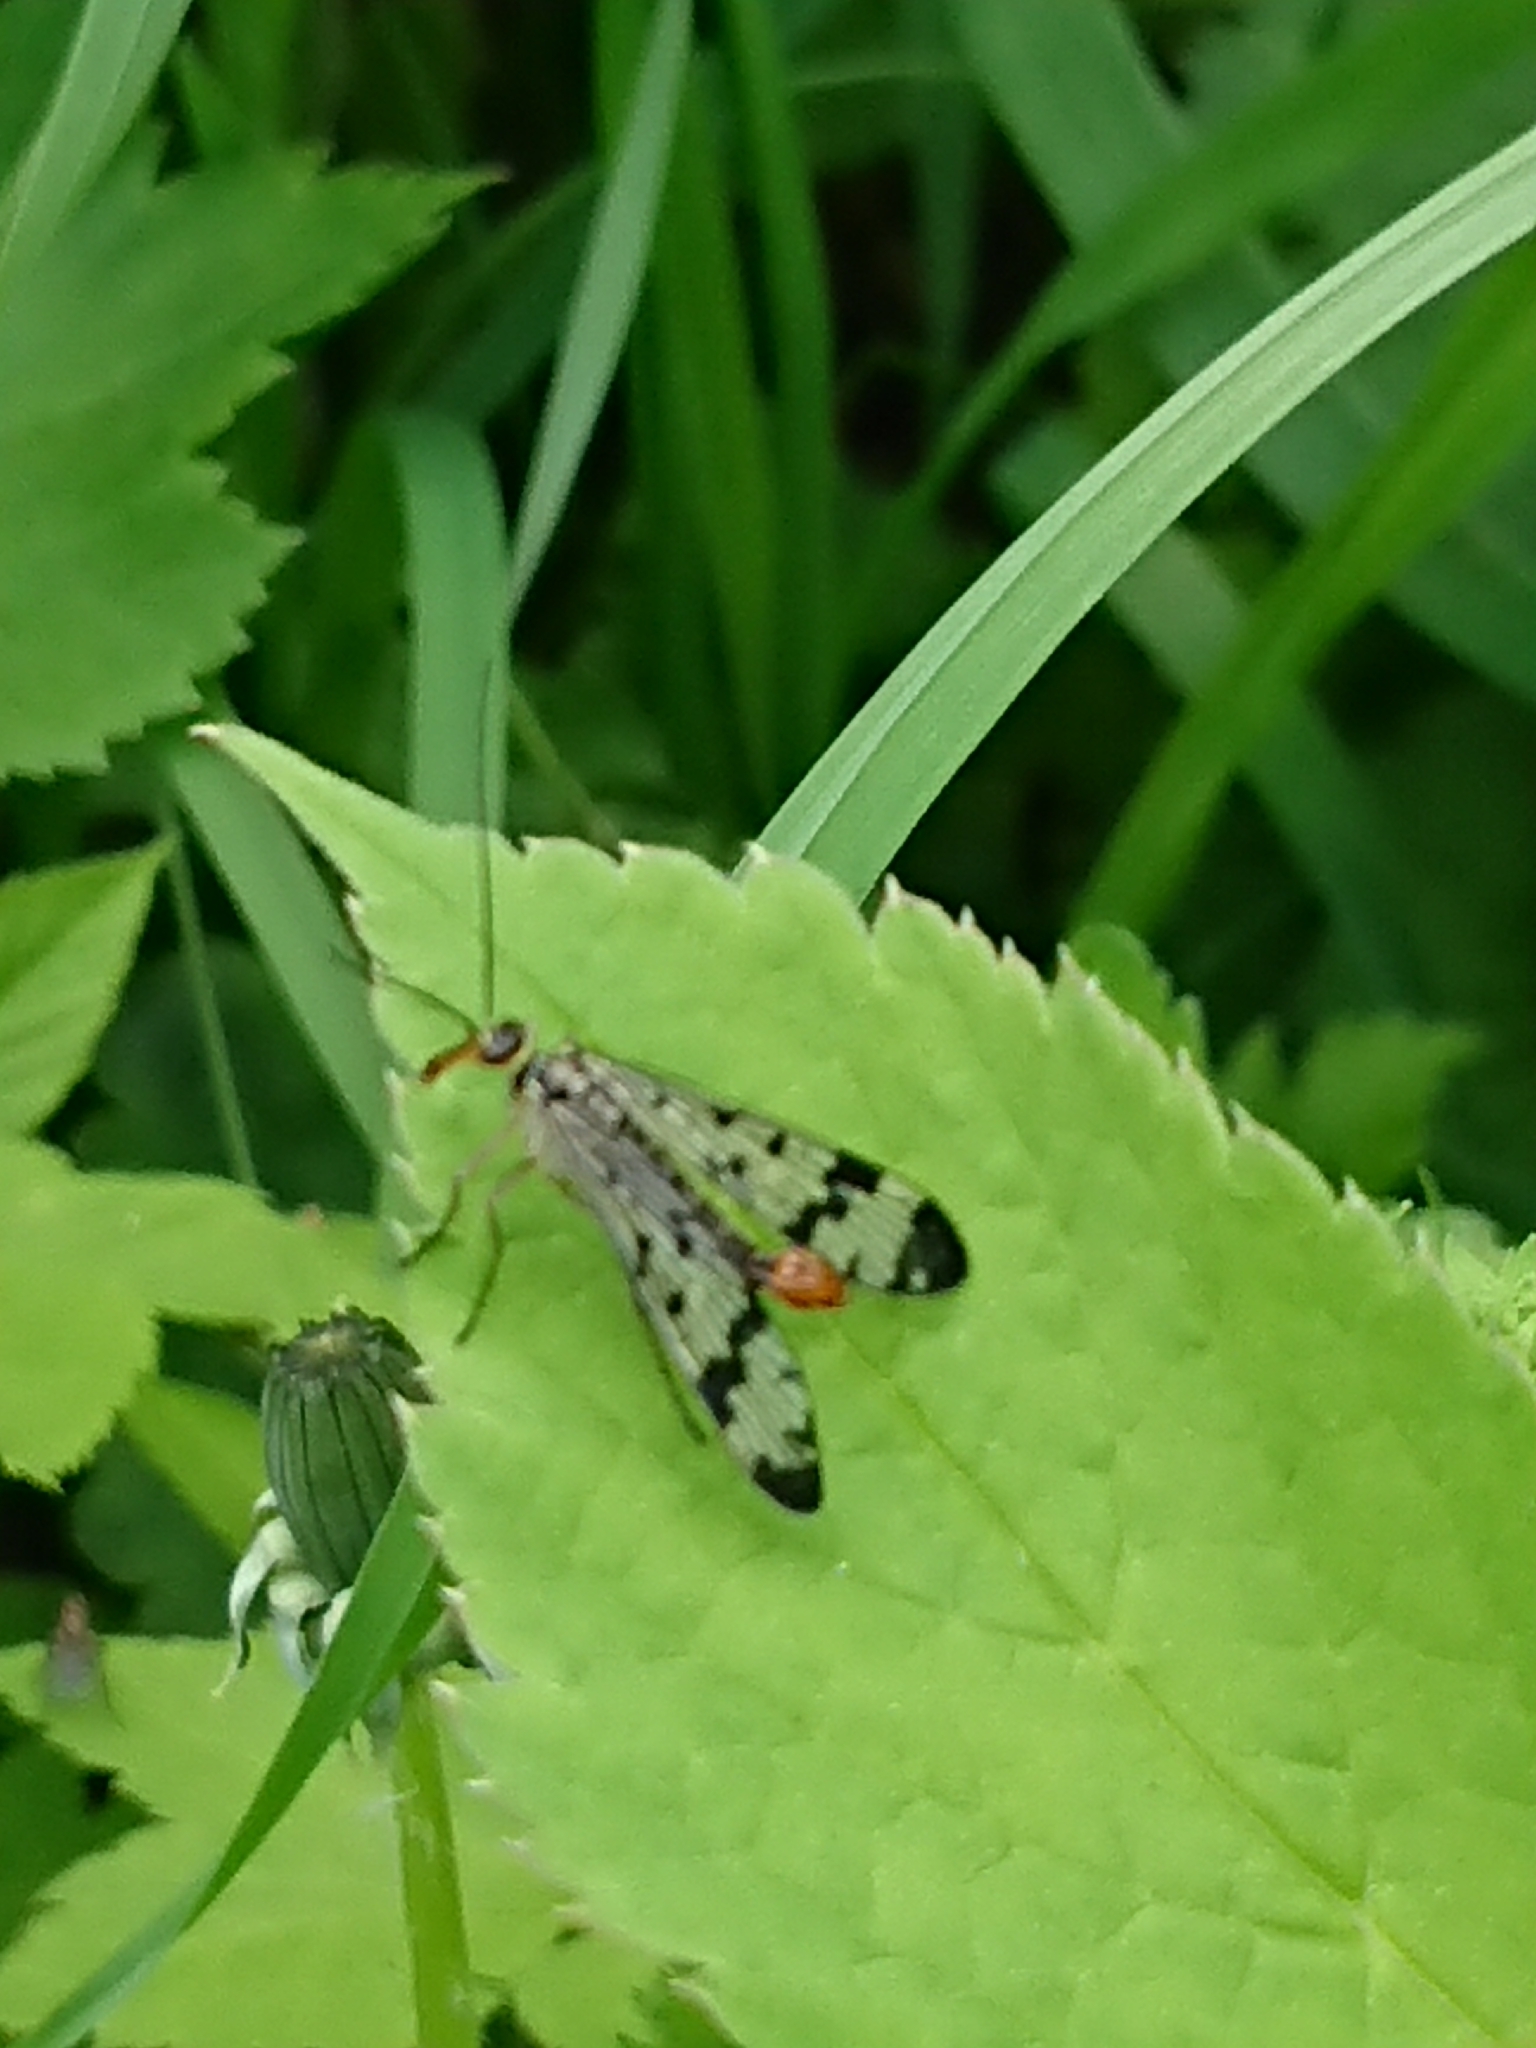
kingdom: Animalia
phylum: Arthropoda
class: Insecta
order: Mecoptera
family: Panorpidae
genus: Panorpa
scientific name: Panorpa communis
